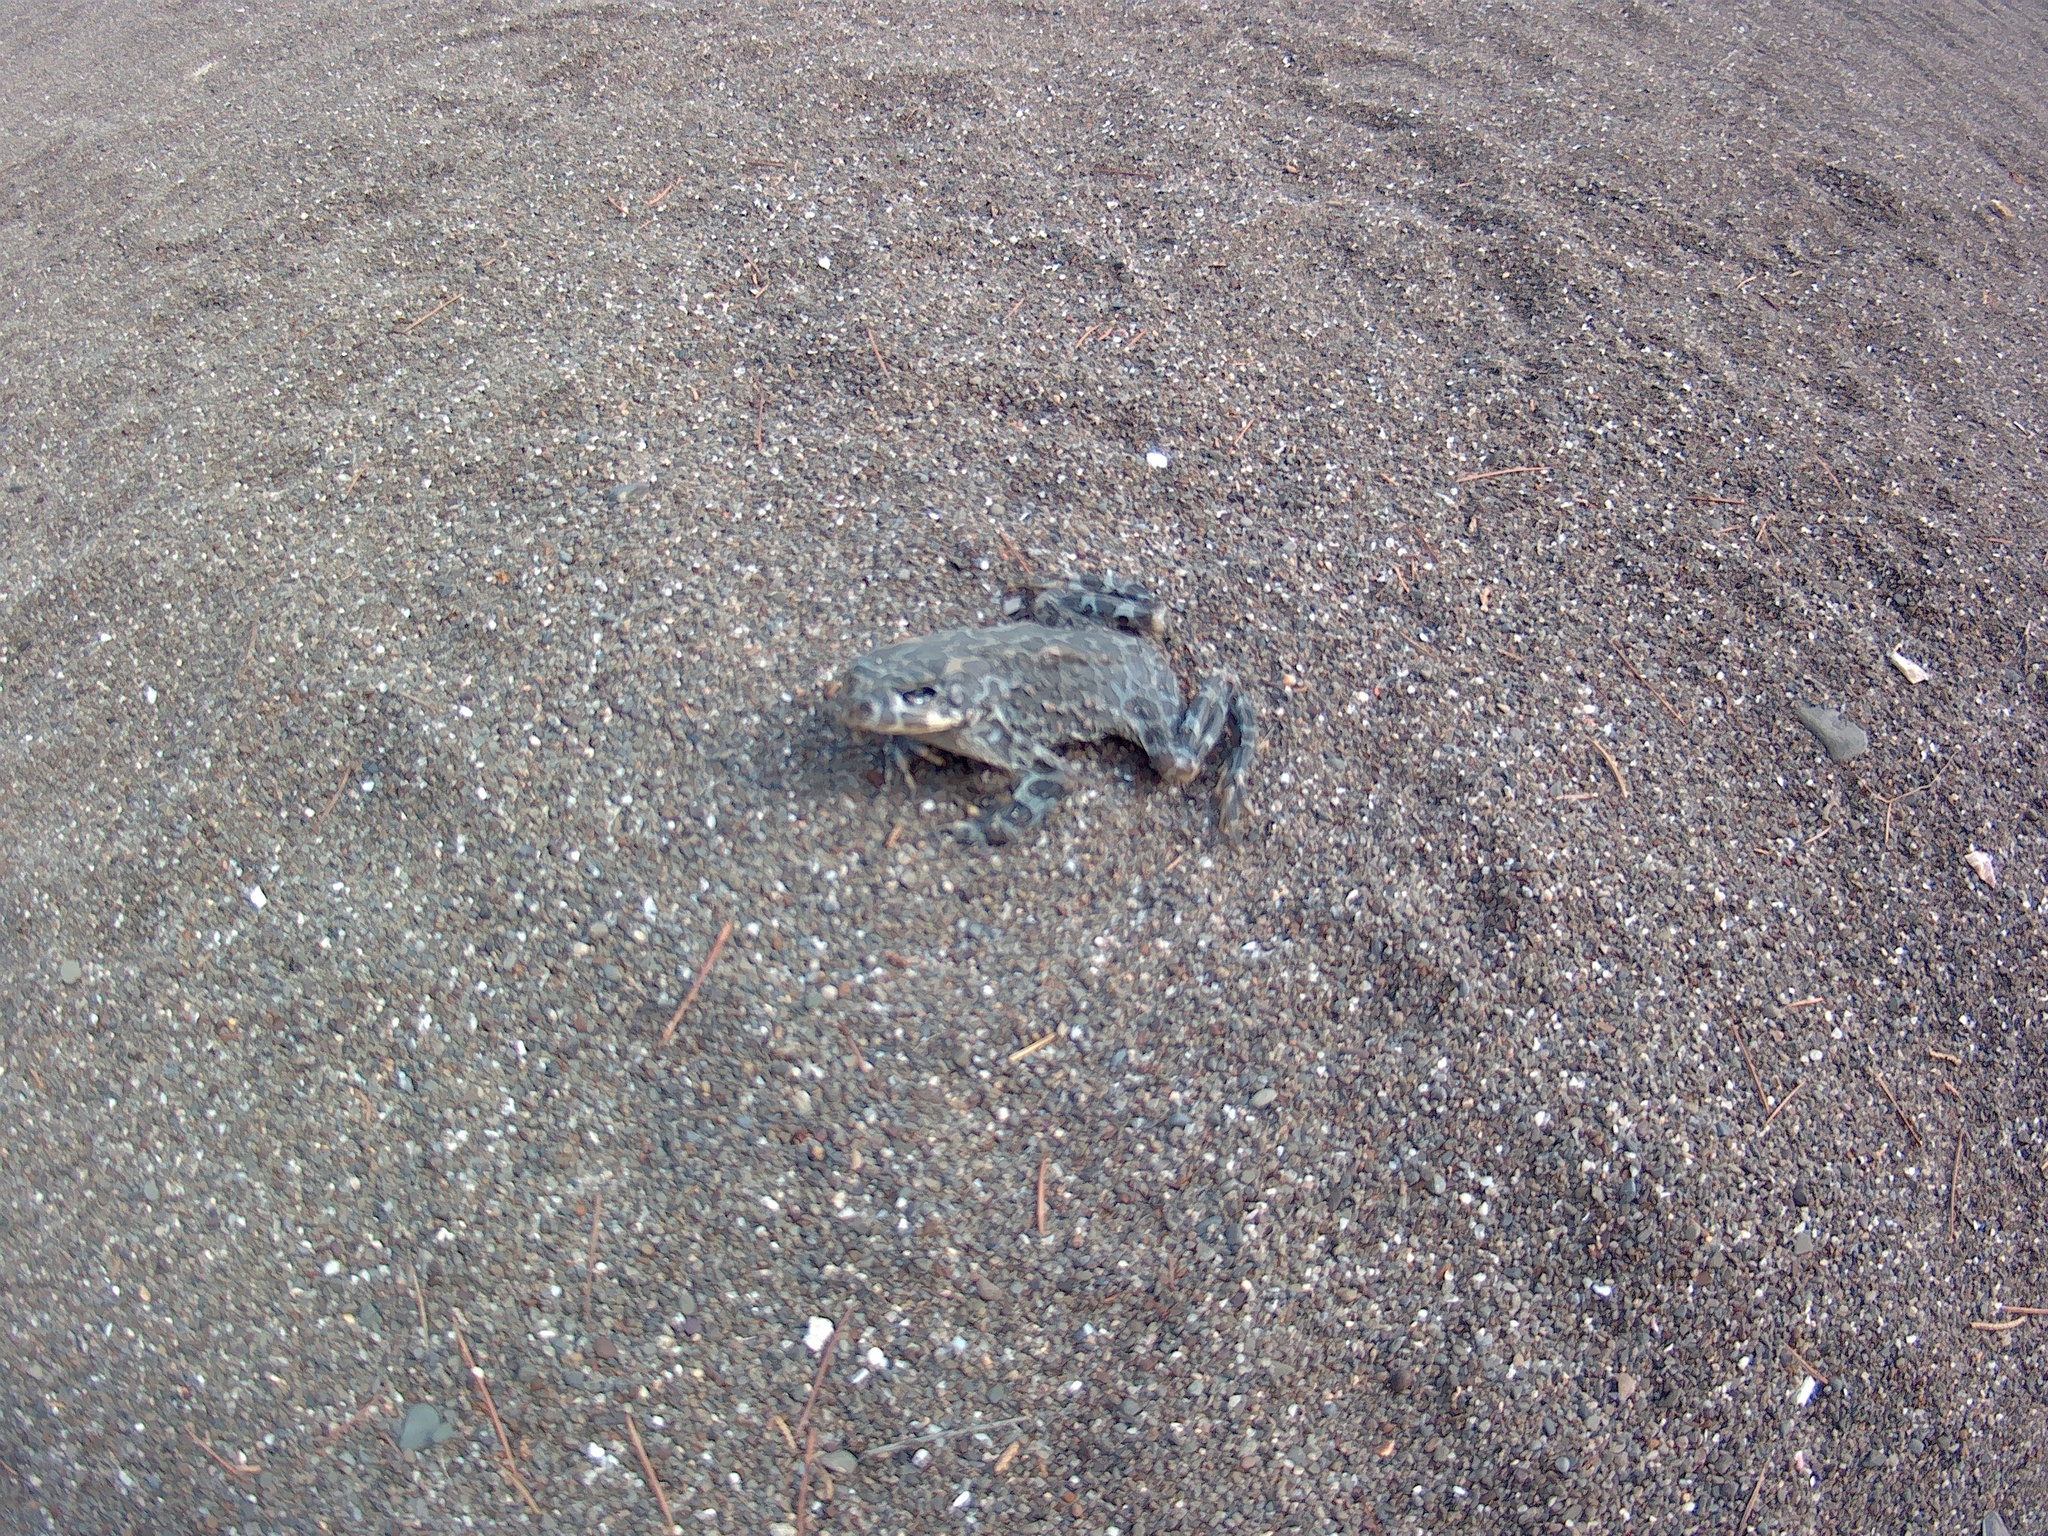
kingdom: Animalia
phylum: Chordata
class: Amphibia
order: Anura
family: Bufonidae
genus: Bufotes
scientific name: Bufotes viridis
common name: European green toad
